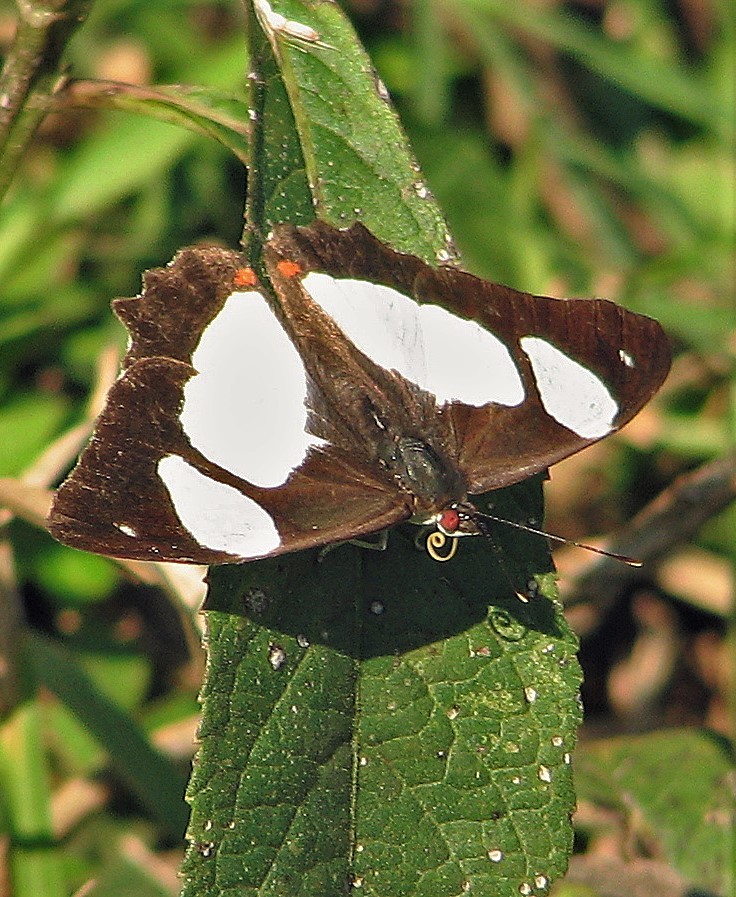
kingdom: Animalia
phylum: Arthropoda
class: Insecta
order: Lepidoptera
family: Nymphalidae
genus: Pyrrhogyra
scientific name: Pyrrhogyra neaerea
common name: Leading red-ring
